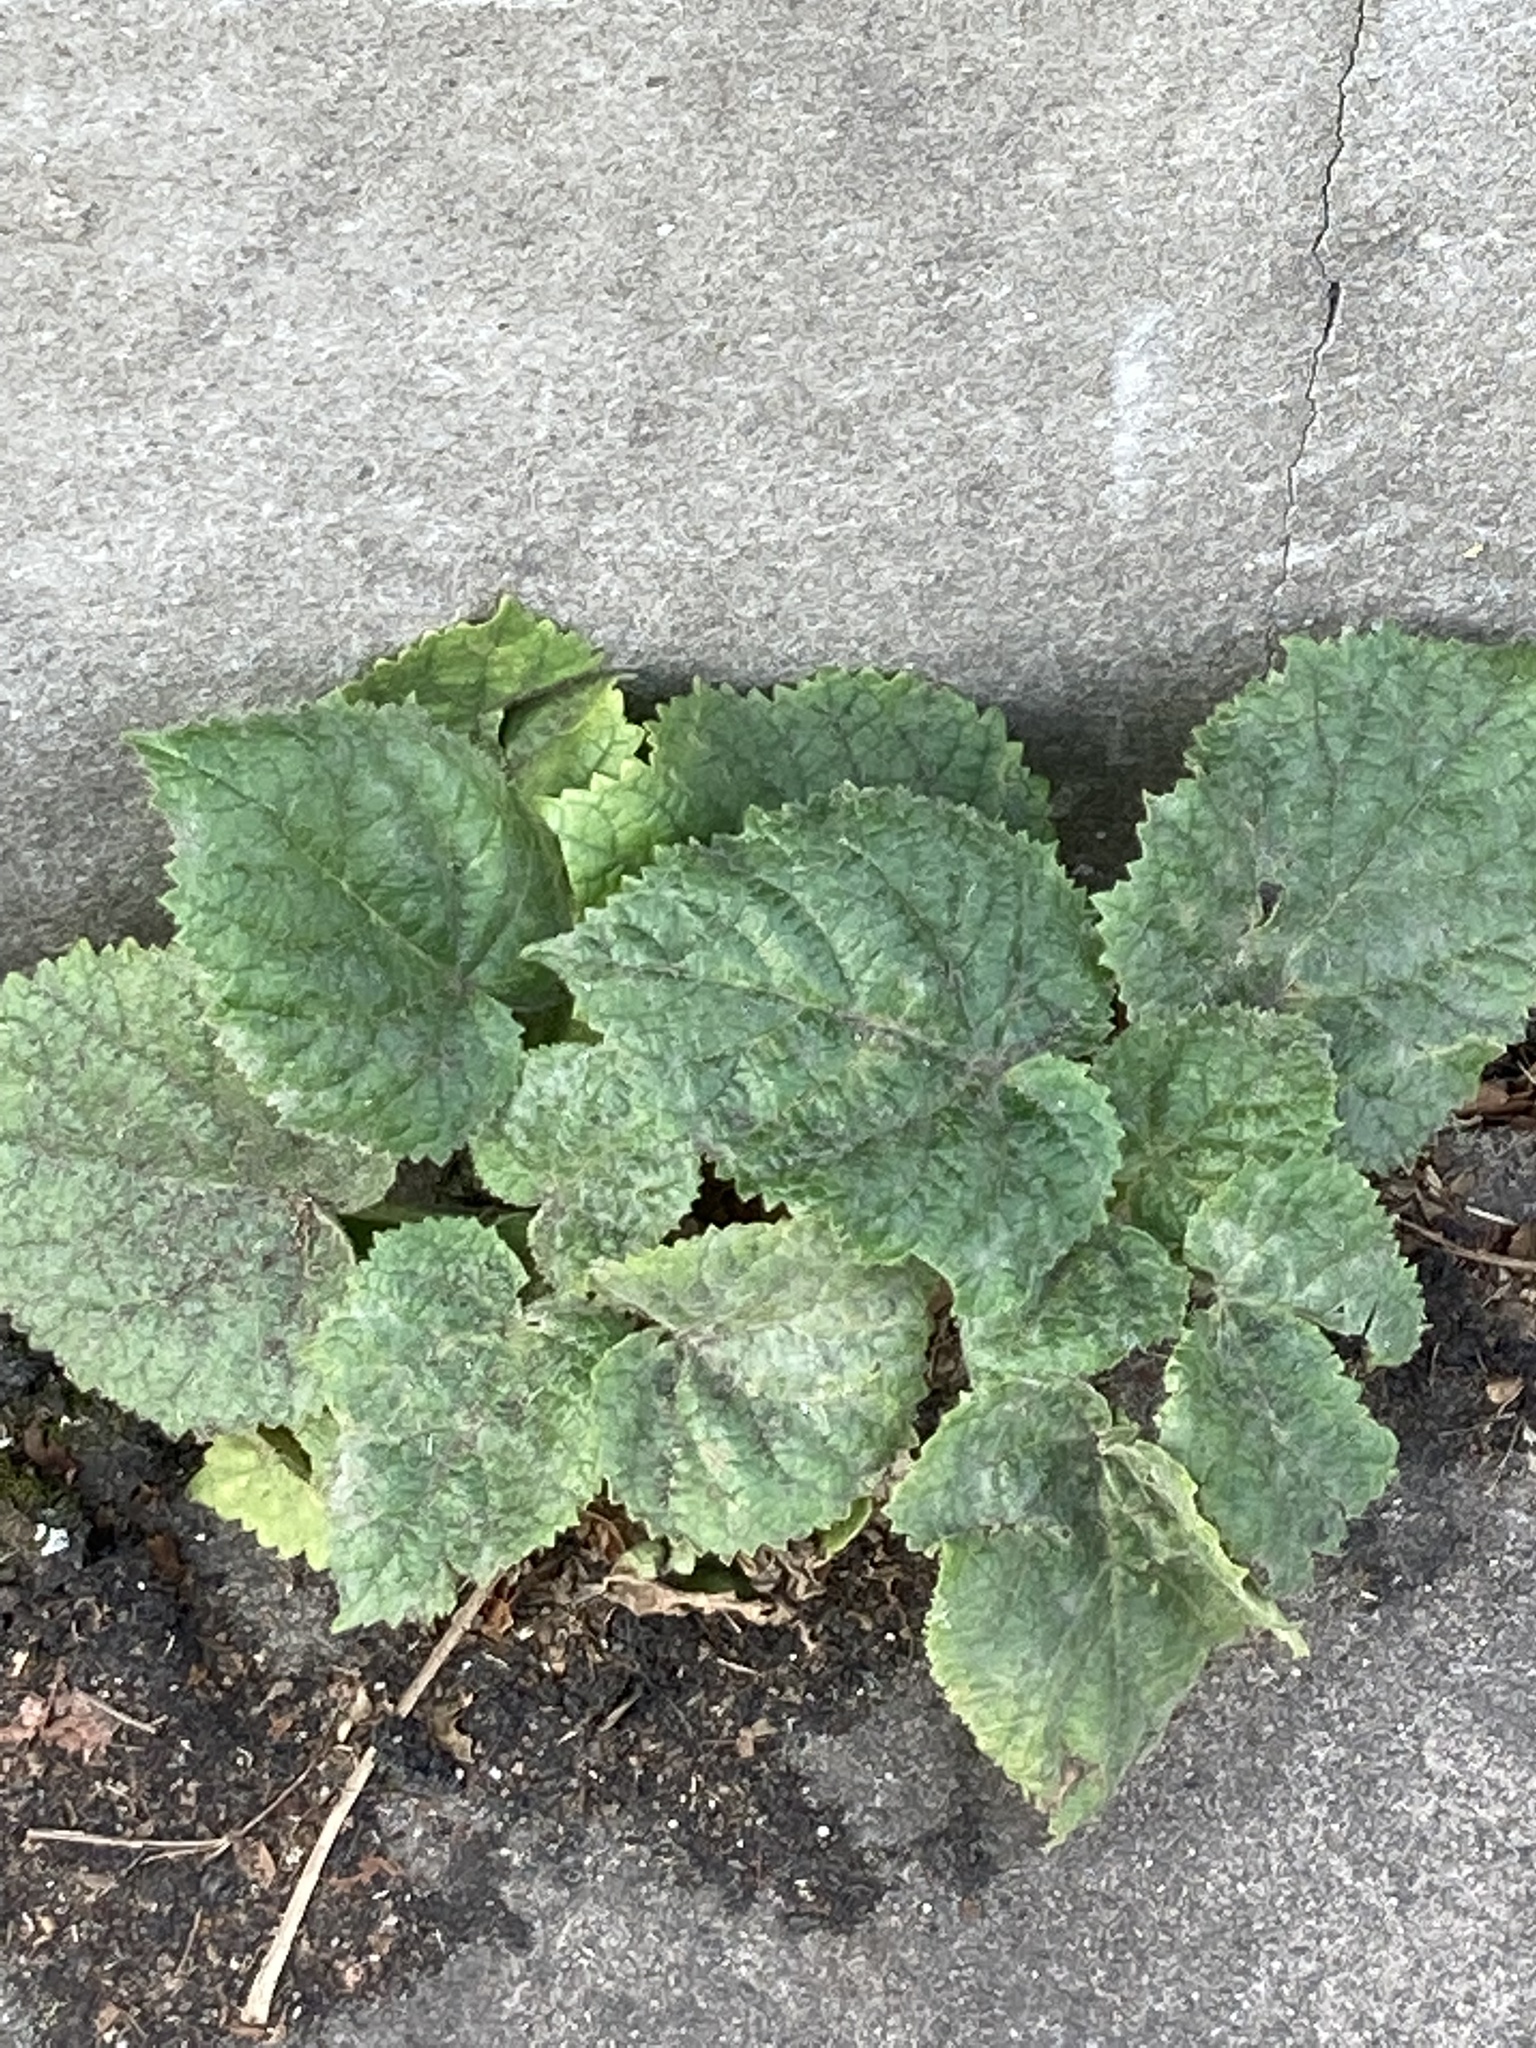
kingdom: Plantae
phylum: Tracheophyta
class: Magnoliopsida
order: Lamiales
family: Paulowniaceae
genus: Paulownia
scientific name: Paulownia tomentosa
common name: Foxglove-tree
